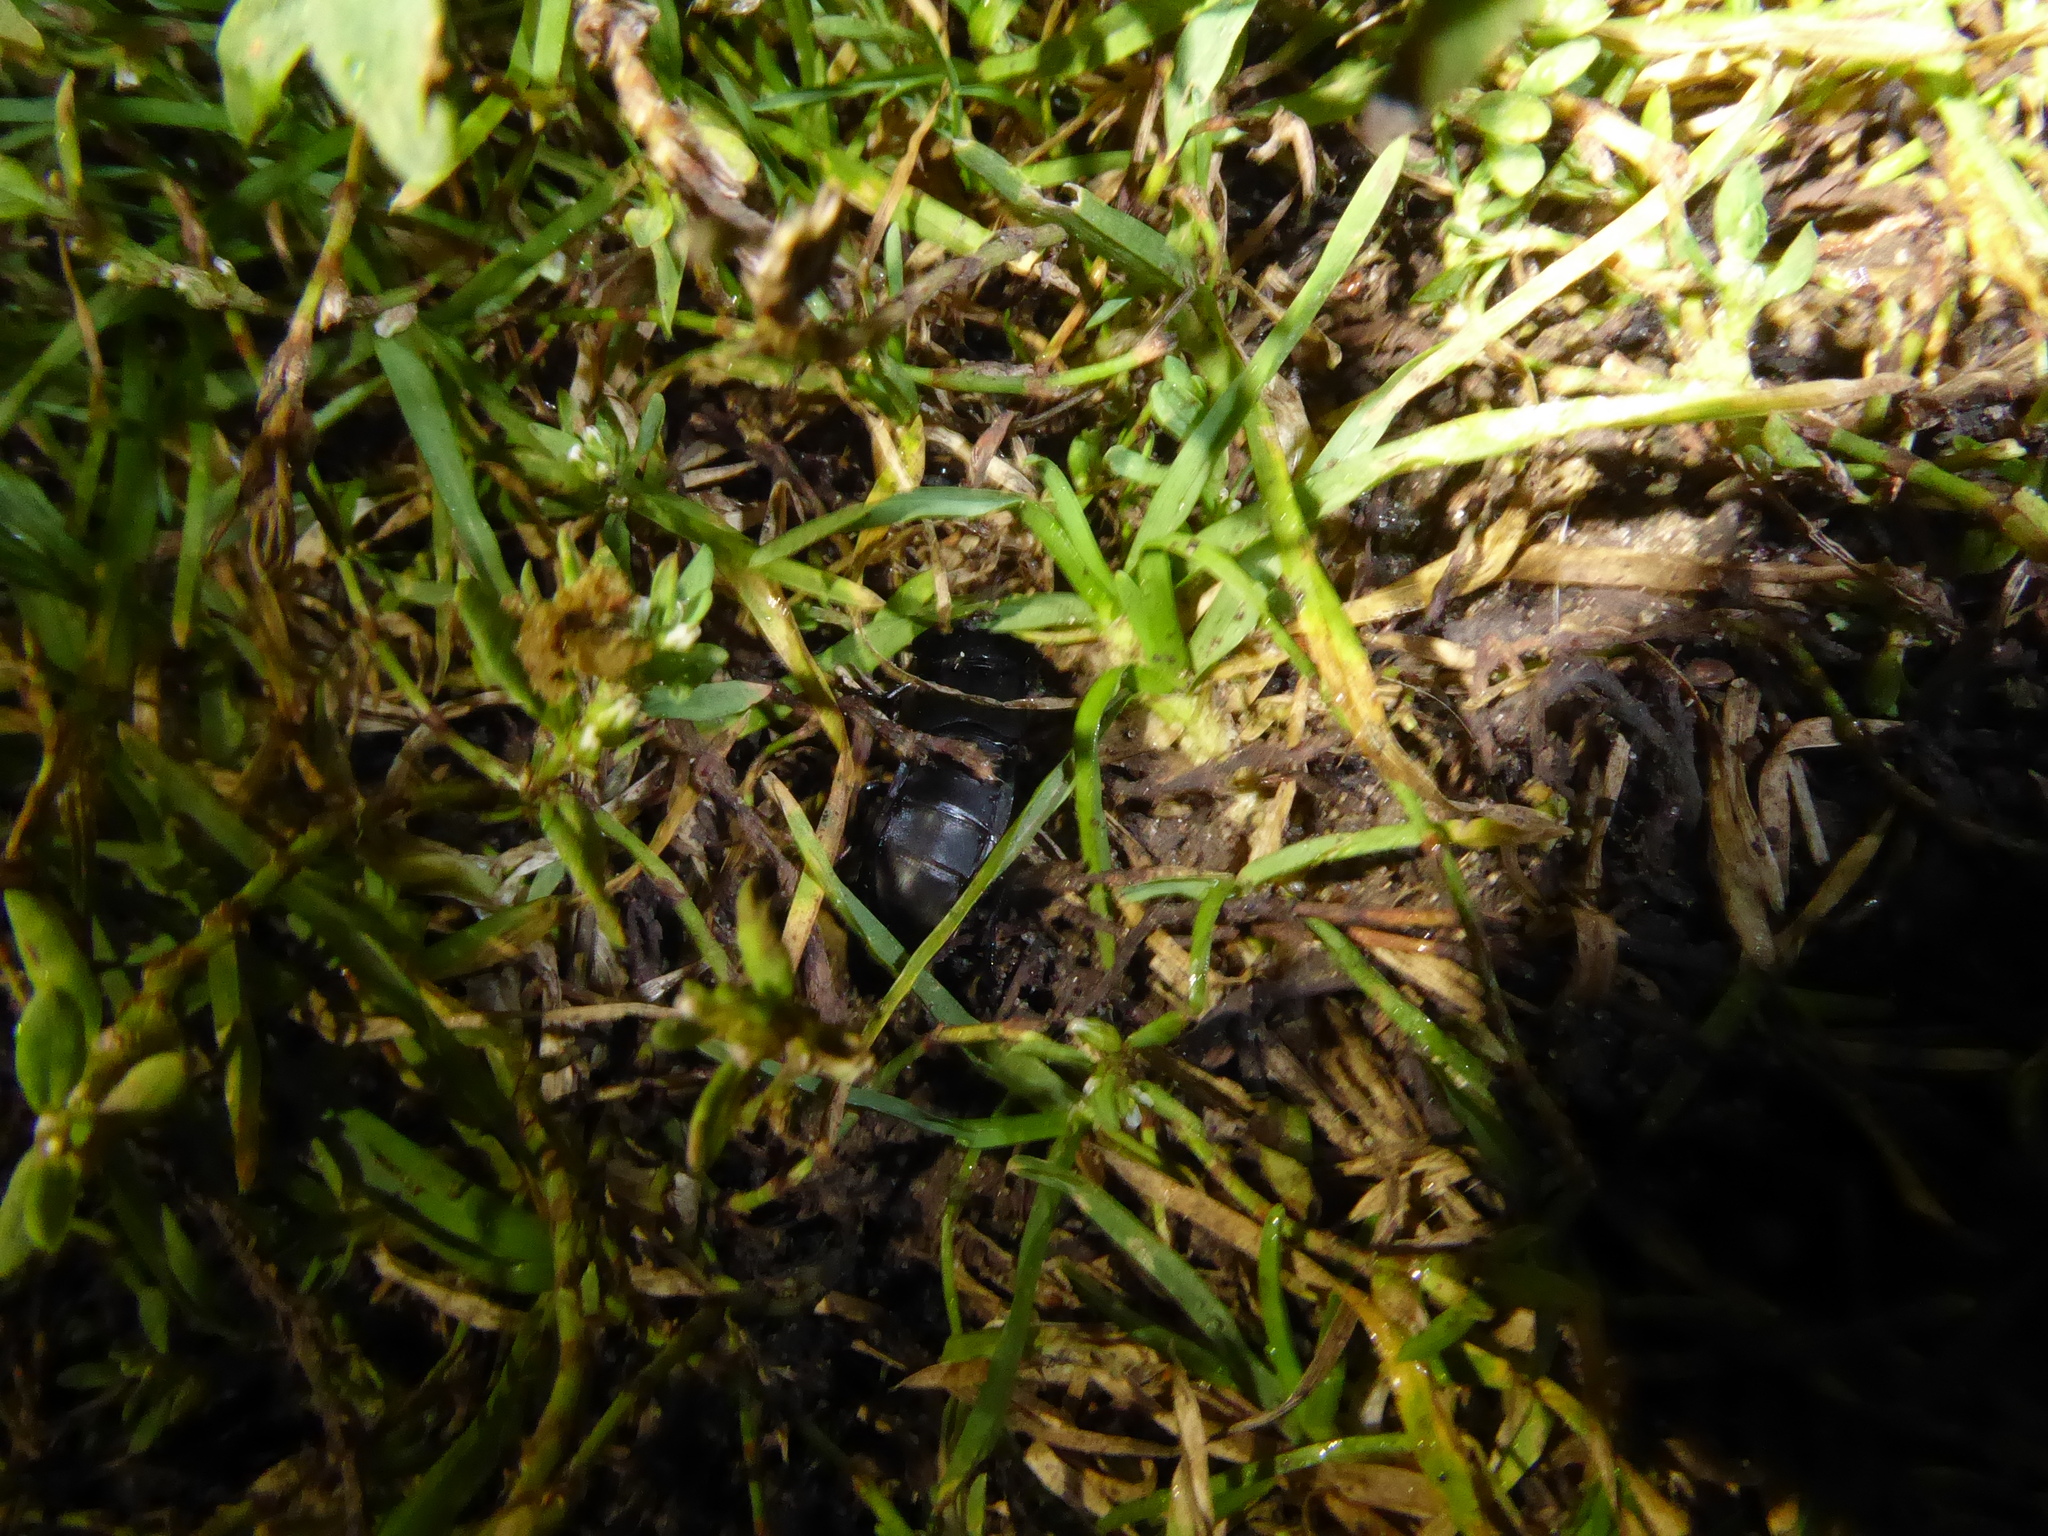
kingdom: Animalia
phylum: Arthropoda
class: Insecta
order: Coleoptera
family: Staphylinidae
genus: Ocypus
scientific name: Ocypus olens
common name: Devil's coach-horse
